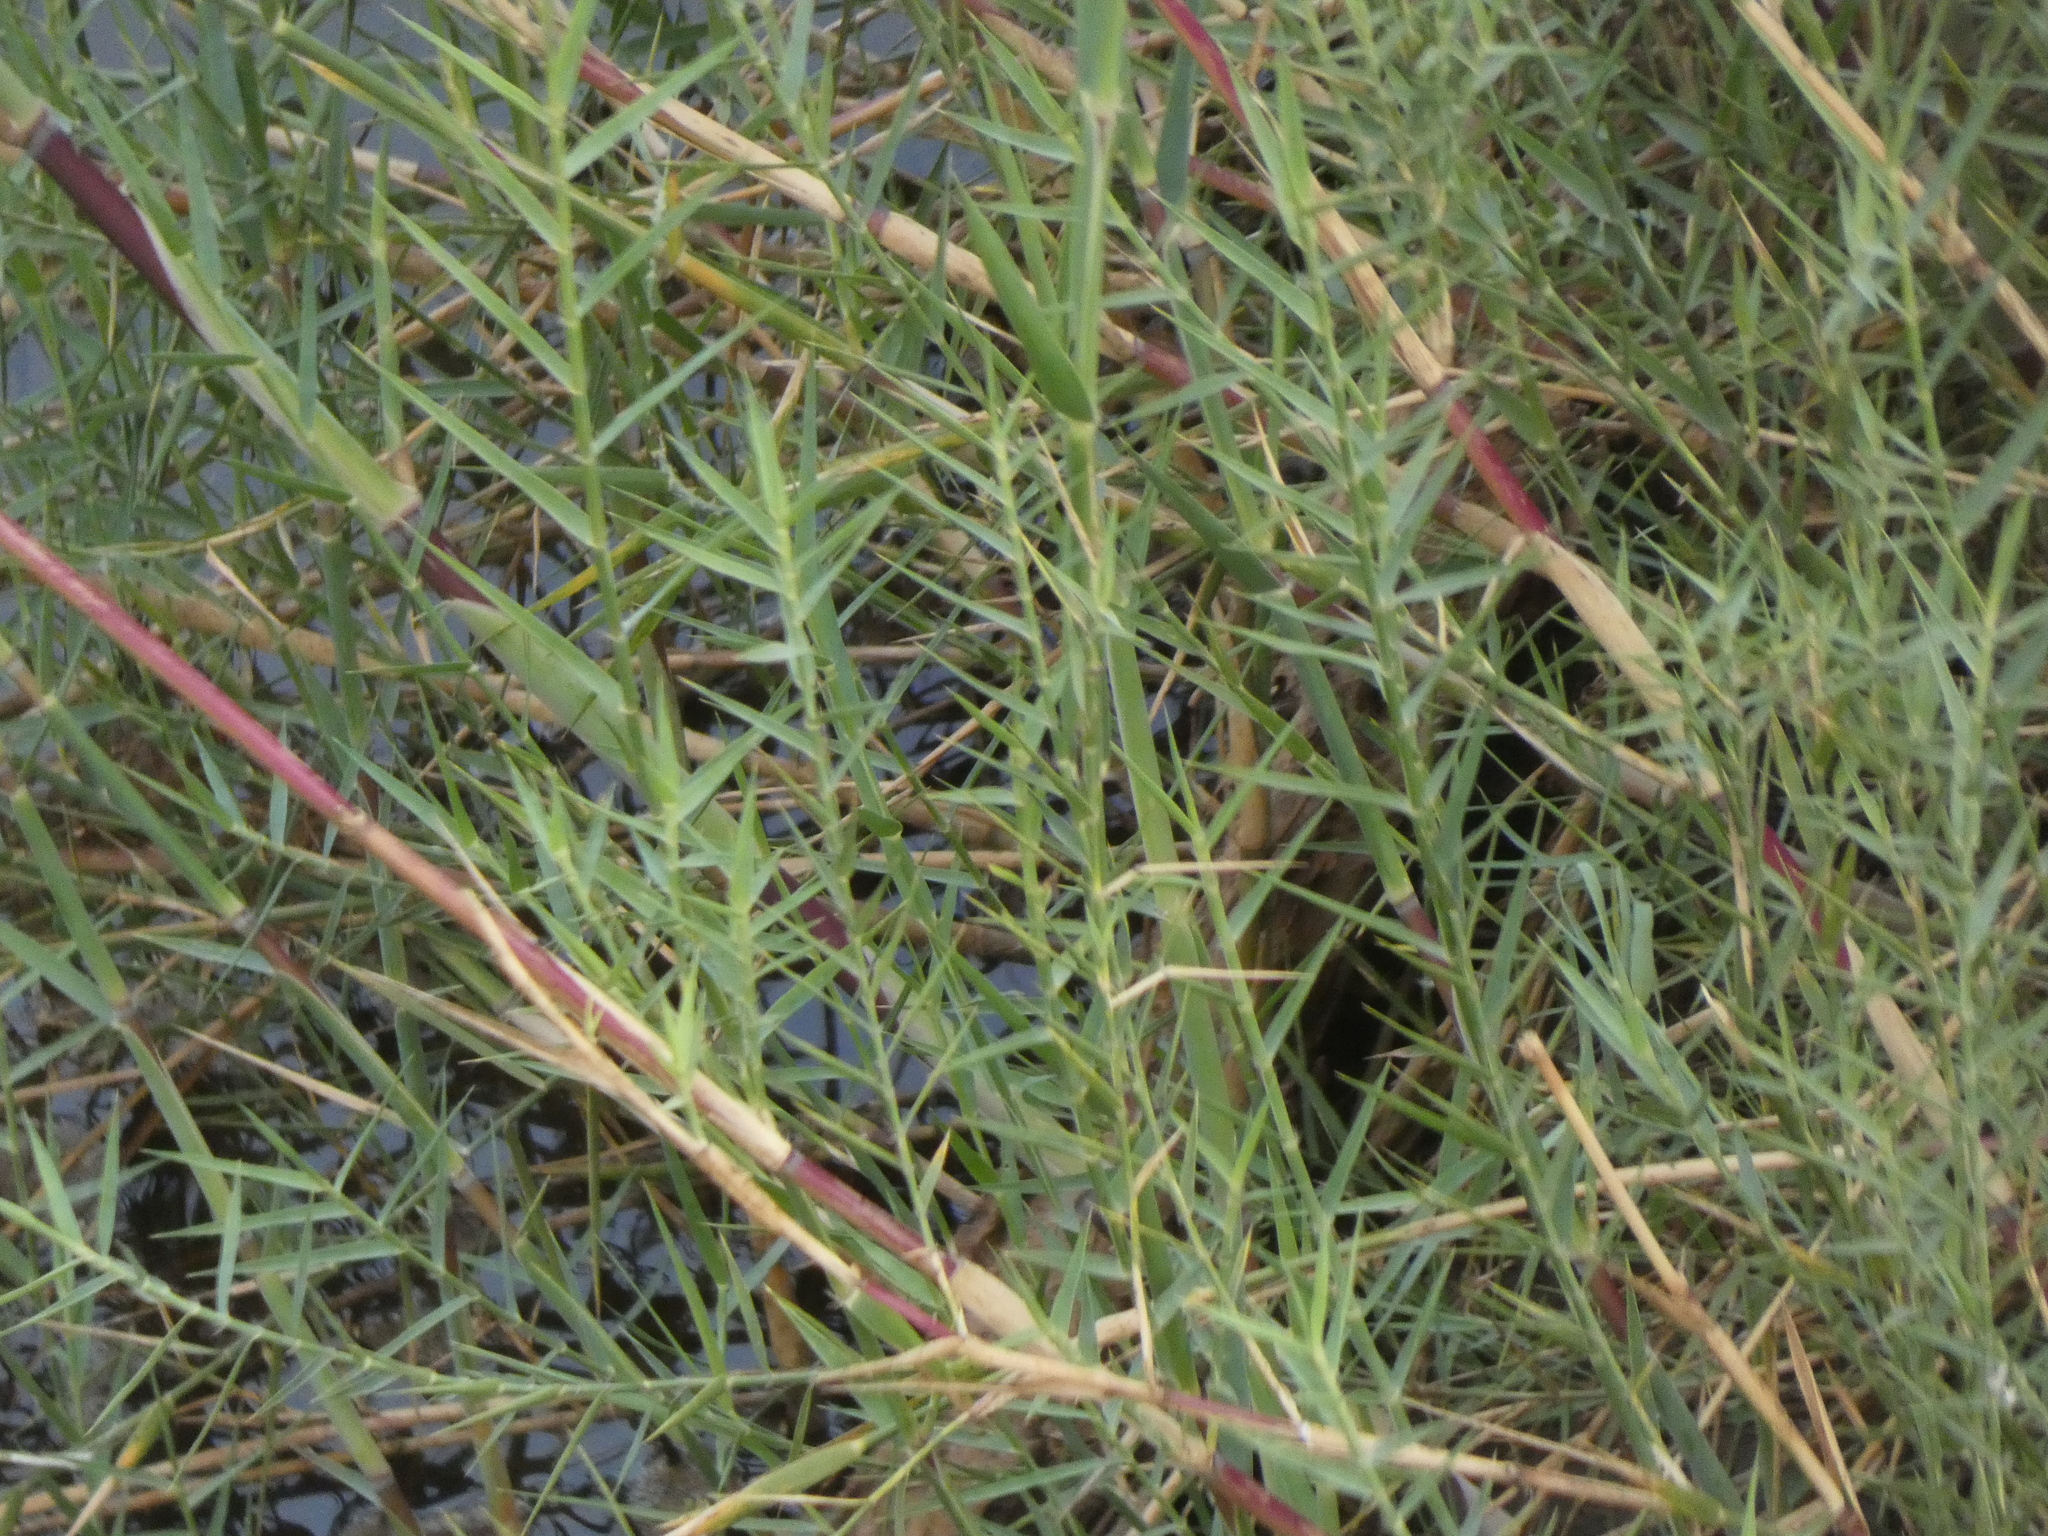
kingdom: Plantae
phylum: Tracheophyta
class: Liliopsida
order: Poales
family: Poaceae
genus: Phragmites
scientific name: Phragmites mauritianus
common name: Reed grass
